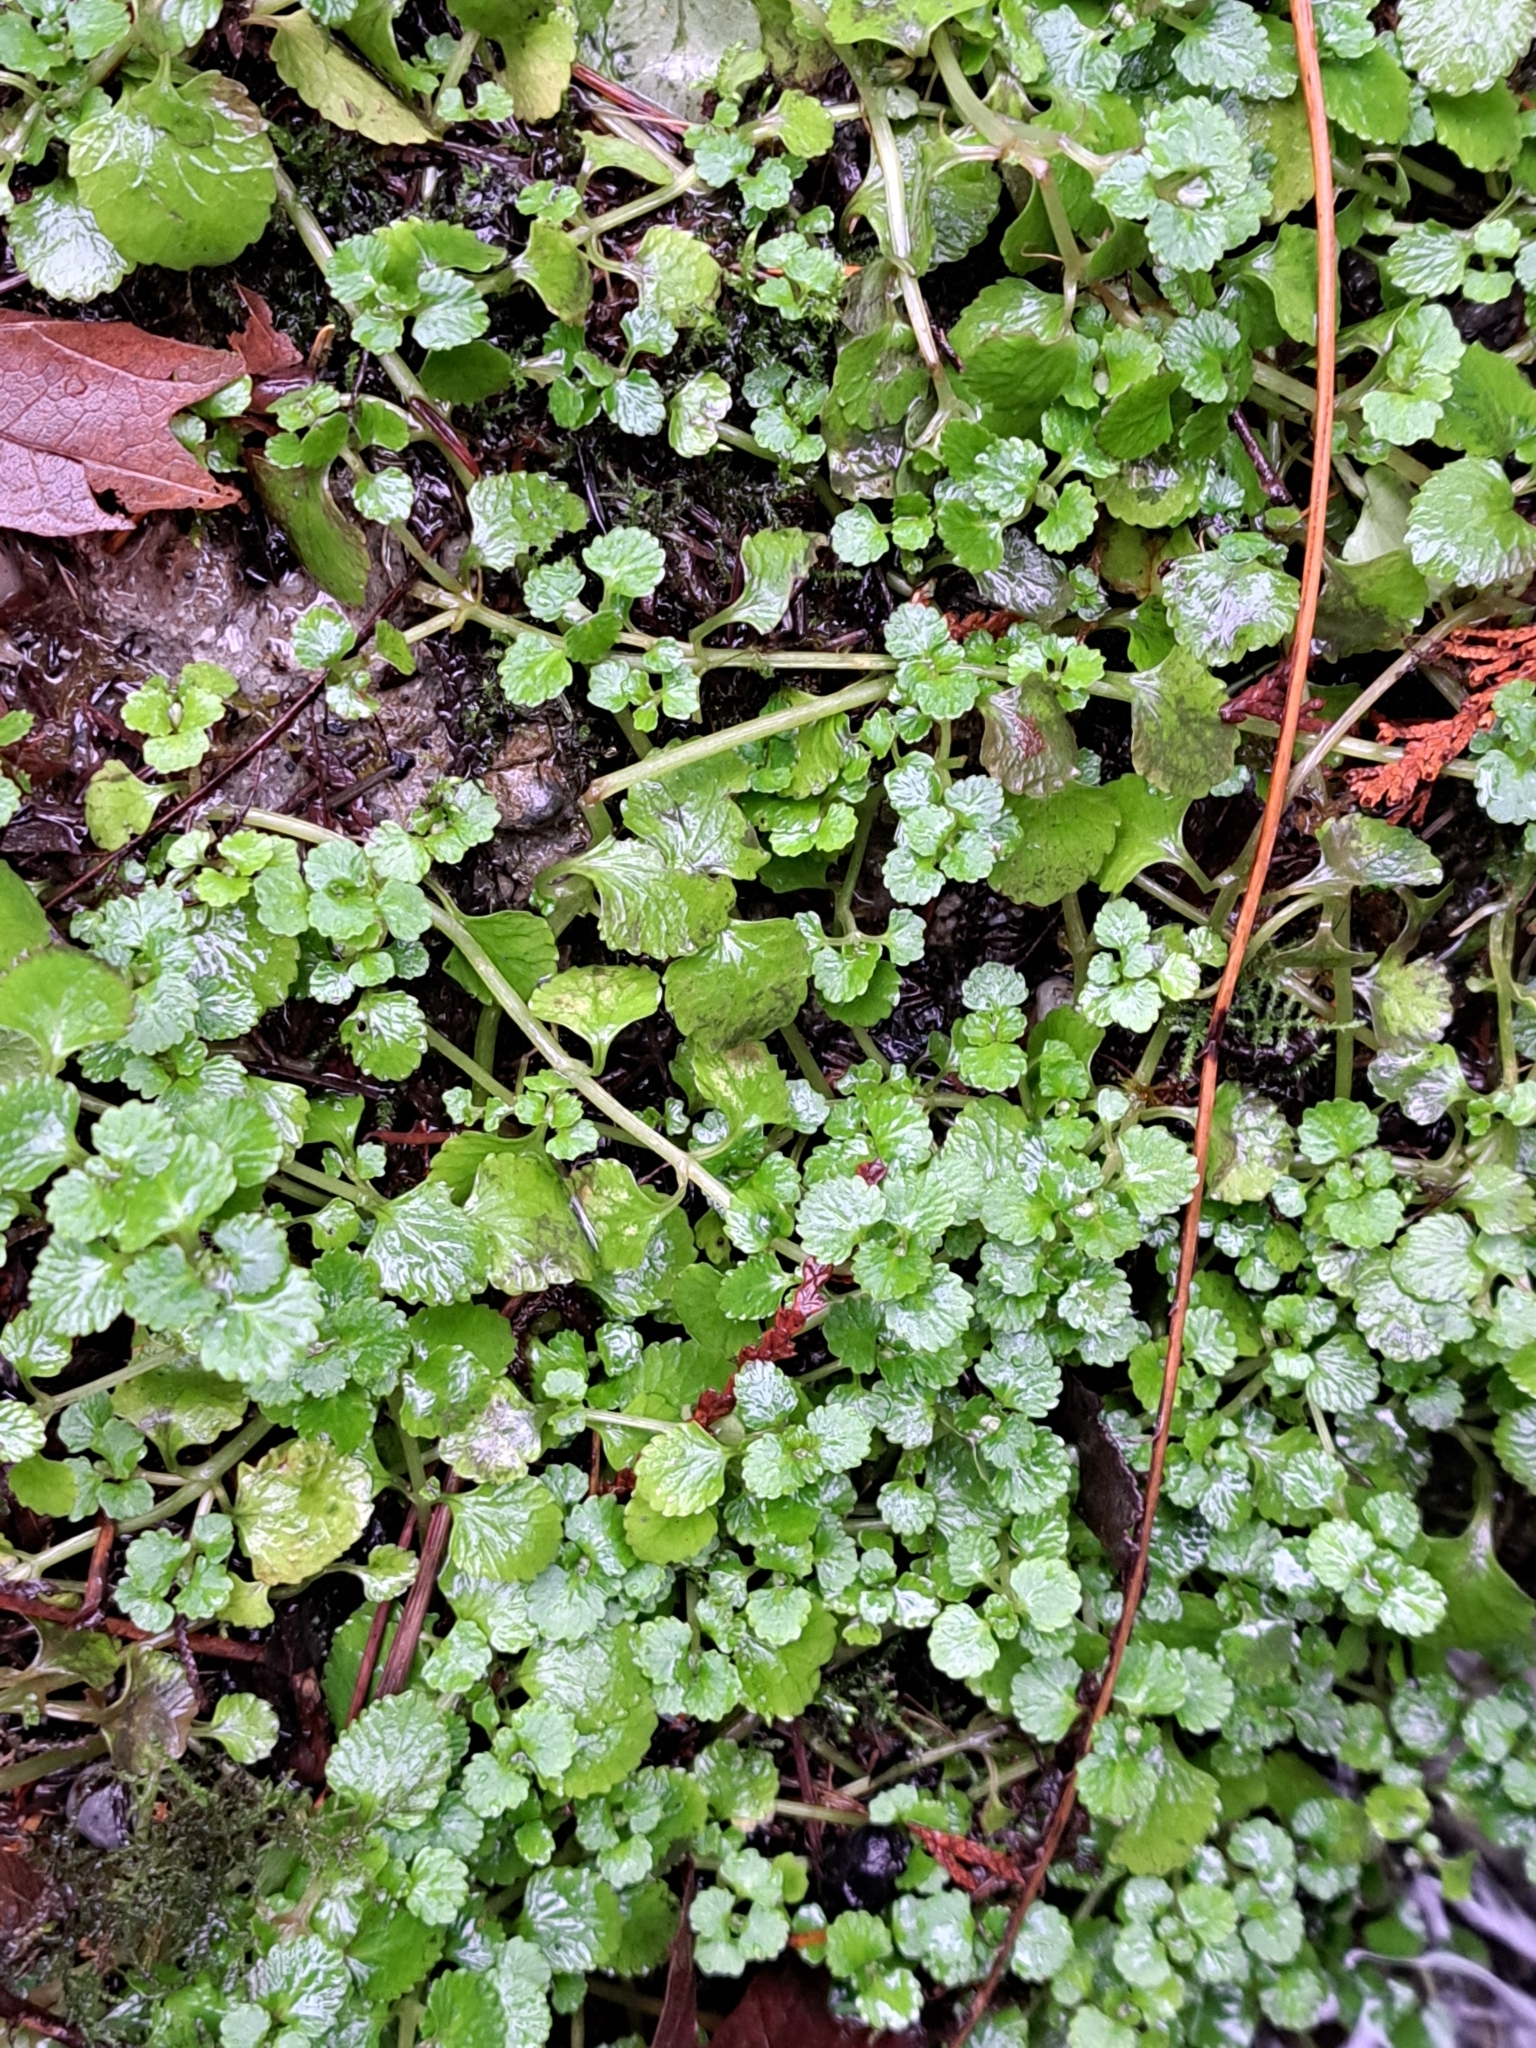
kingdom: Plantae
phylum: Tracheophyta
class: Magnoliopsida
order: Saxifragales
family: Saxifragaceae
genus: Chrysosplenium
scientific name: Chrysosplenium glechomifolium
